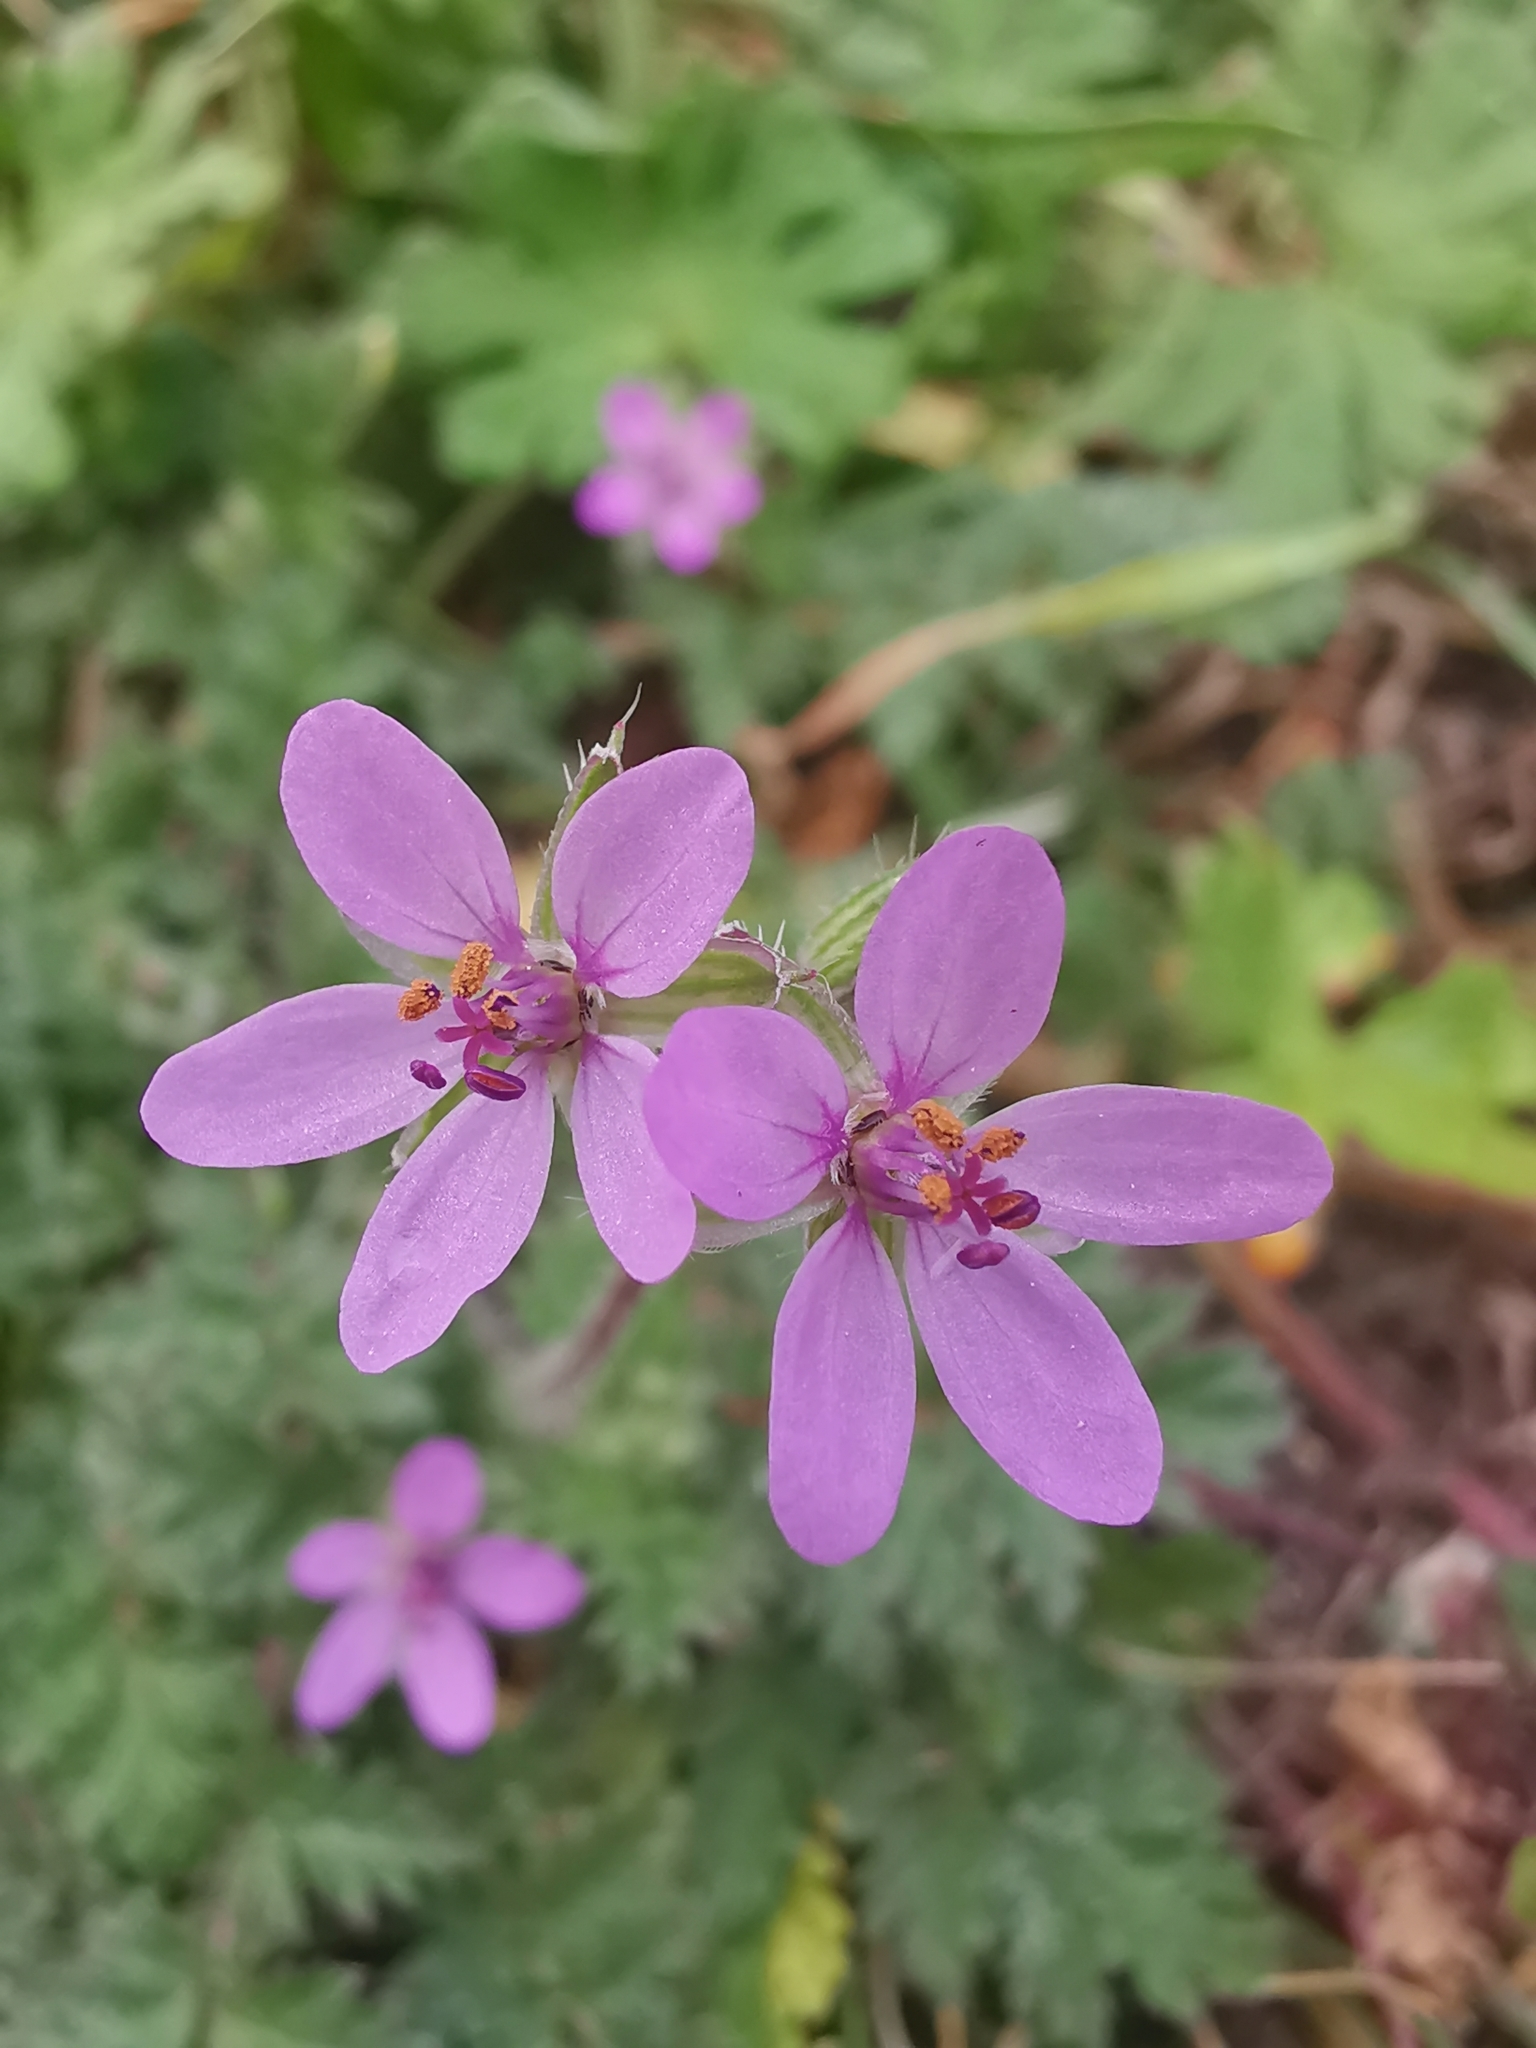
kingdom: Plantae
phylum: Tracheophyta
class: Magnoliopsida
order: Geraniales
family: Geraniaceae
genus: Erodium
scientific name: Erodium cicutarium
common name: Common stork's-bill
